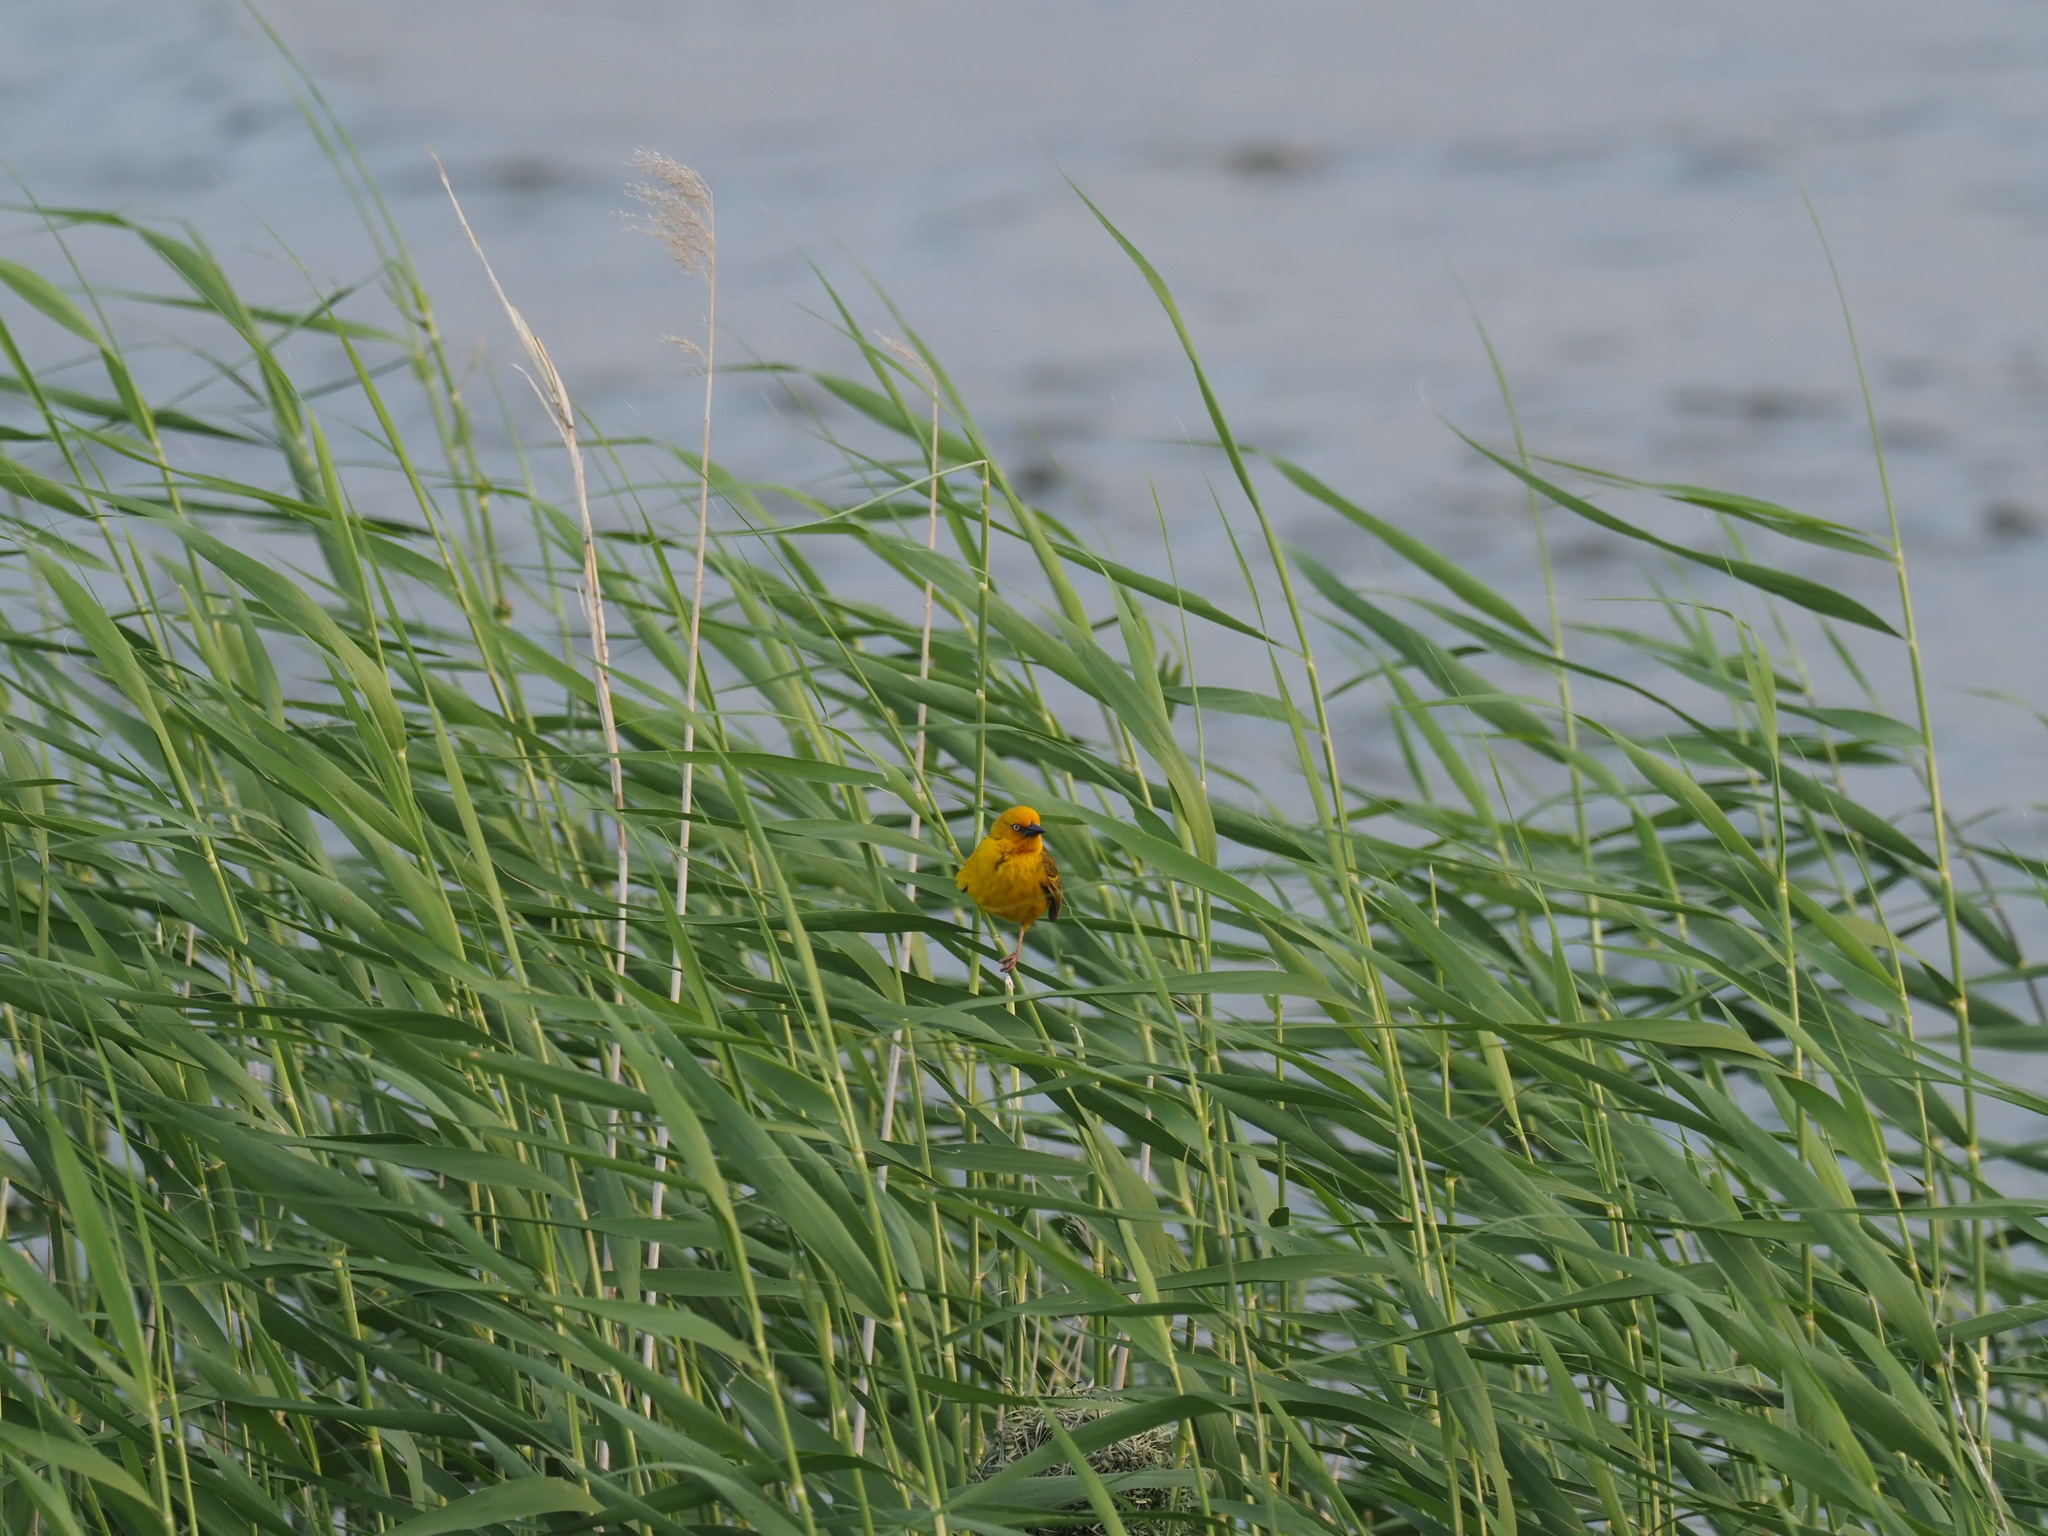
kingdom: Animalia
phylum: Chordata
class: Aves
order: Passeriformes
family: Ploceidae
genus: Ploceus
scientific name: Ploceus capensis
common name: Cape weaver
